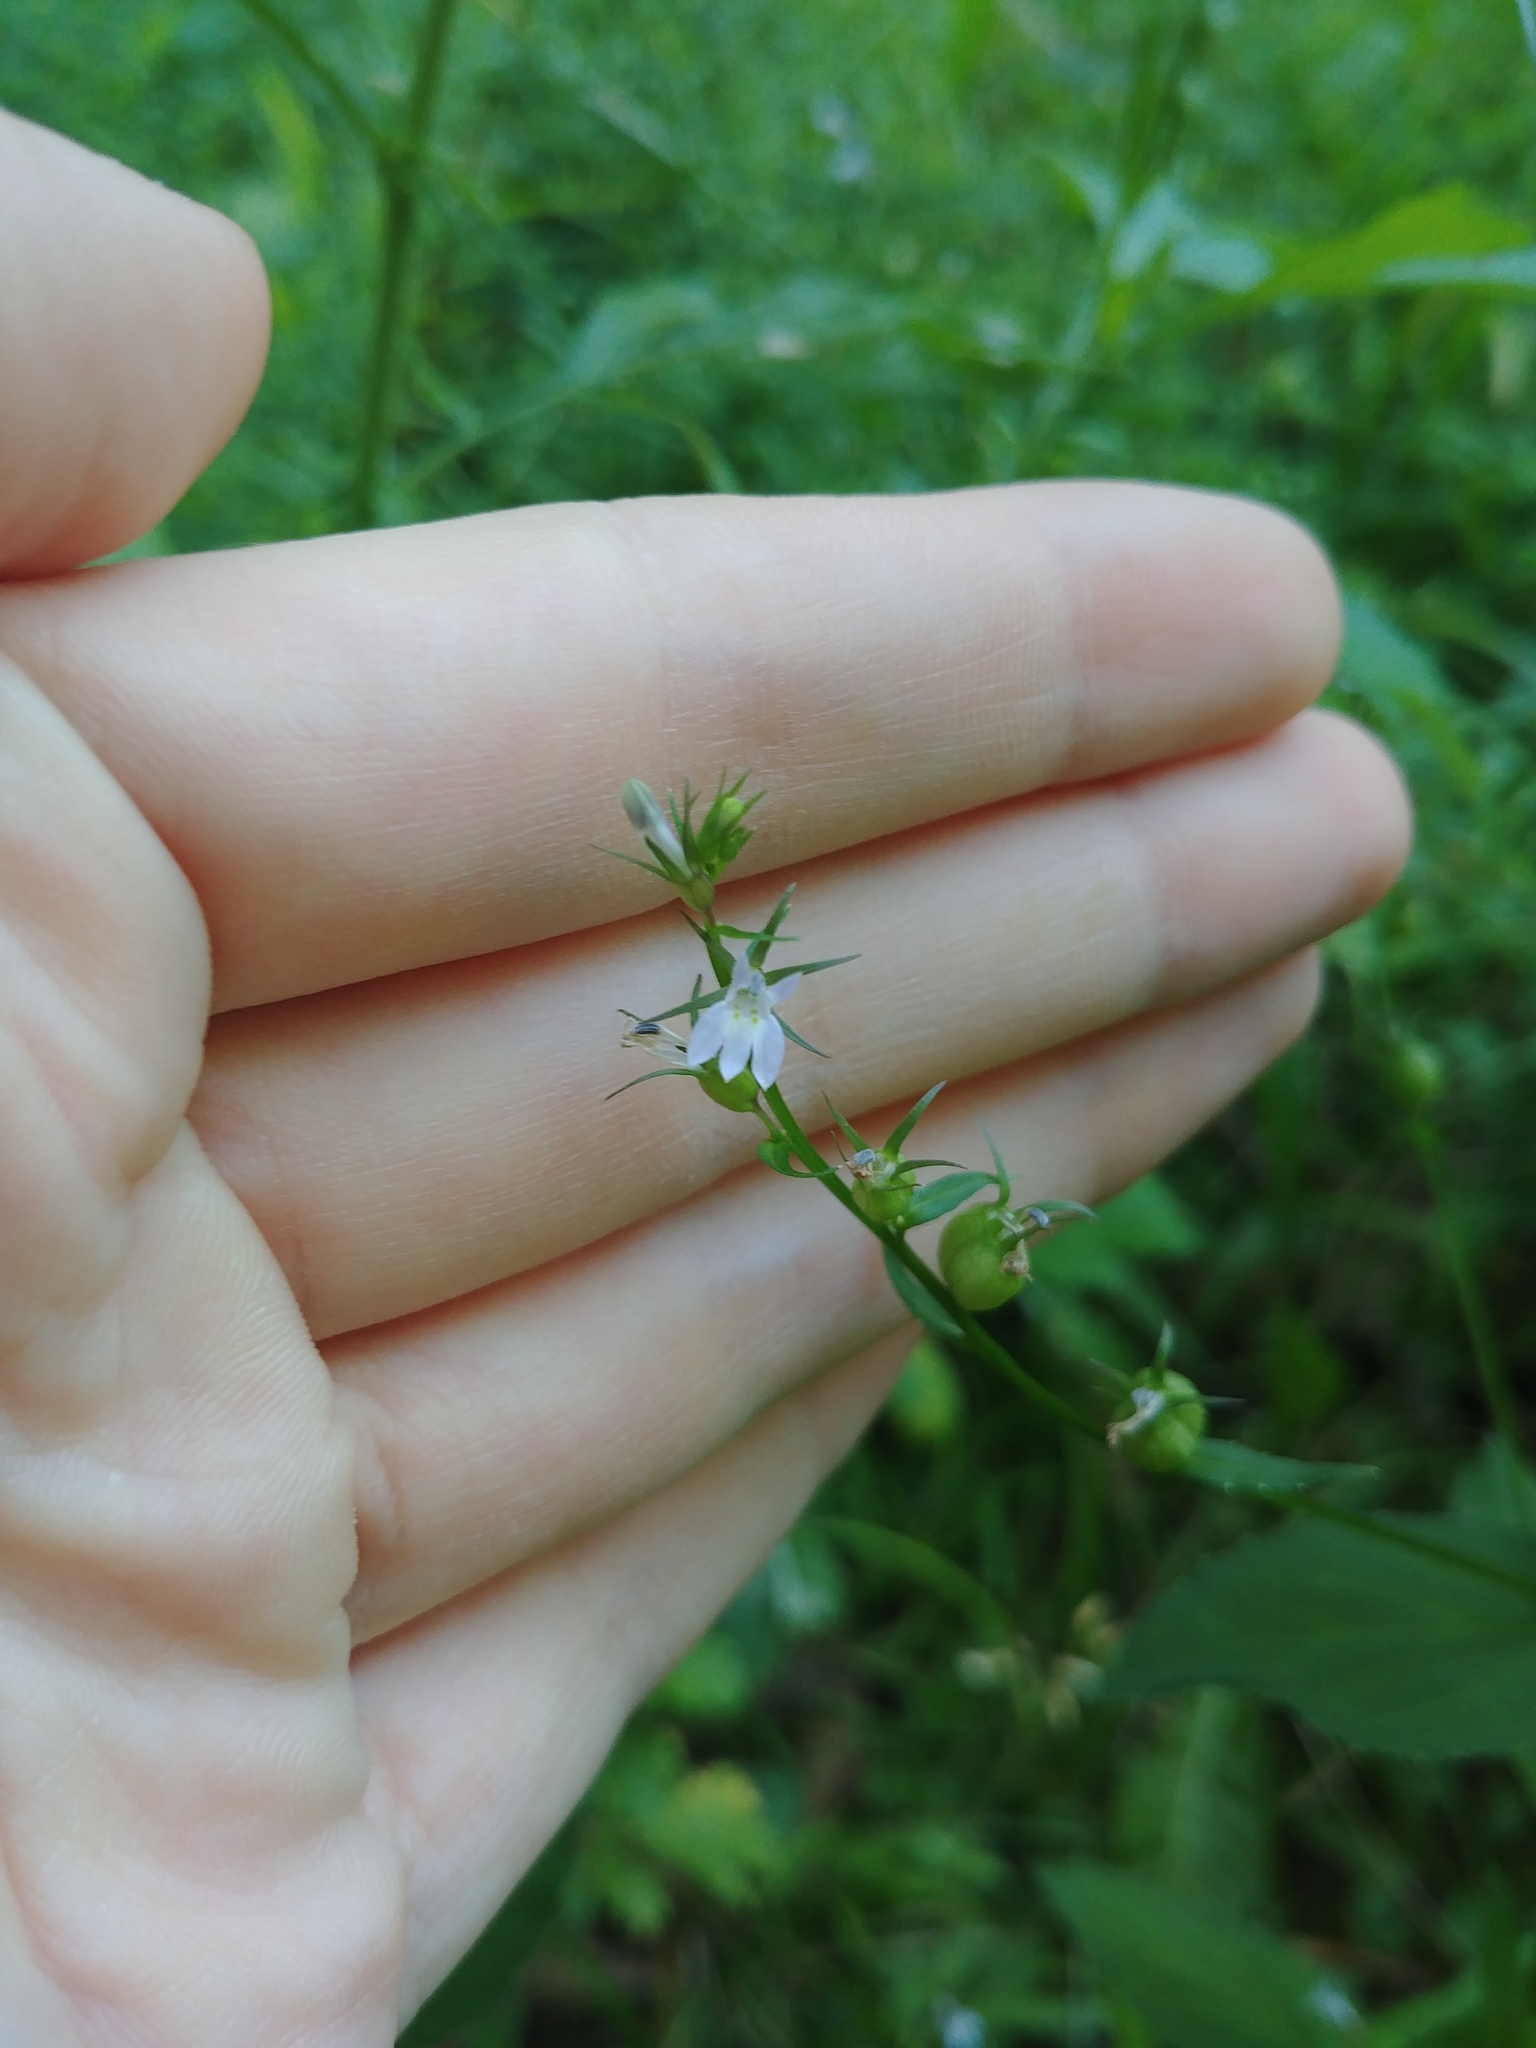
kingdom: Plantae
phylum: Tracheophyta
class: Magnoliopsida
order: Asterales
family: Campanulaceae
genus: Lobelia
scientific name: Lobelia inflata
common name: Indian tobacco
